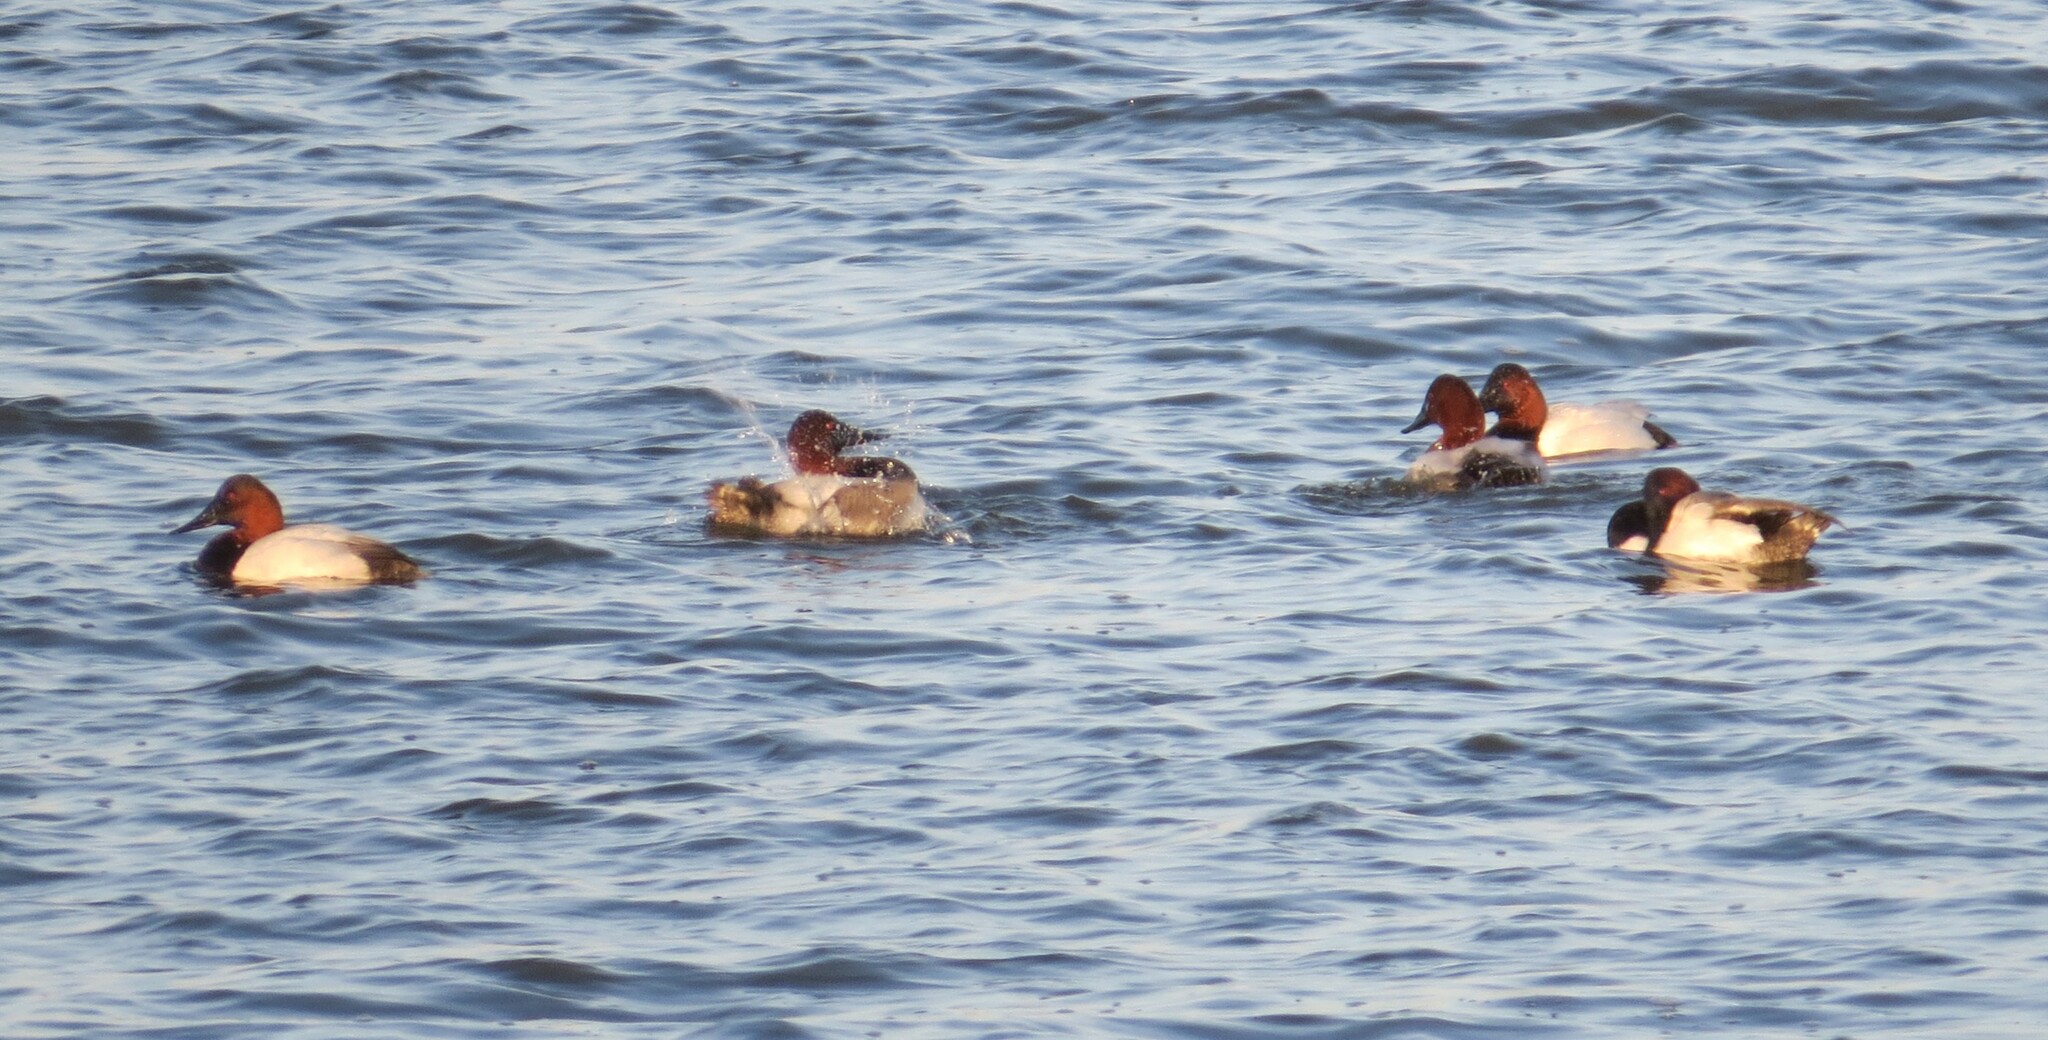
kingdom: Animalia
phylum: Chordata
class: Aves
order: Anseriformes
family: Anatidae
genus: Aythya
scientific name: Aythya valisineria
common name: Canvasback
